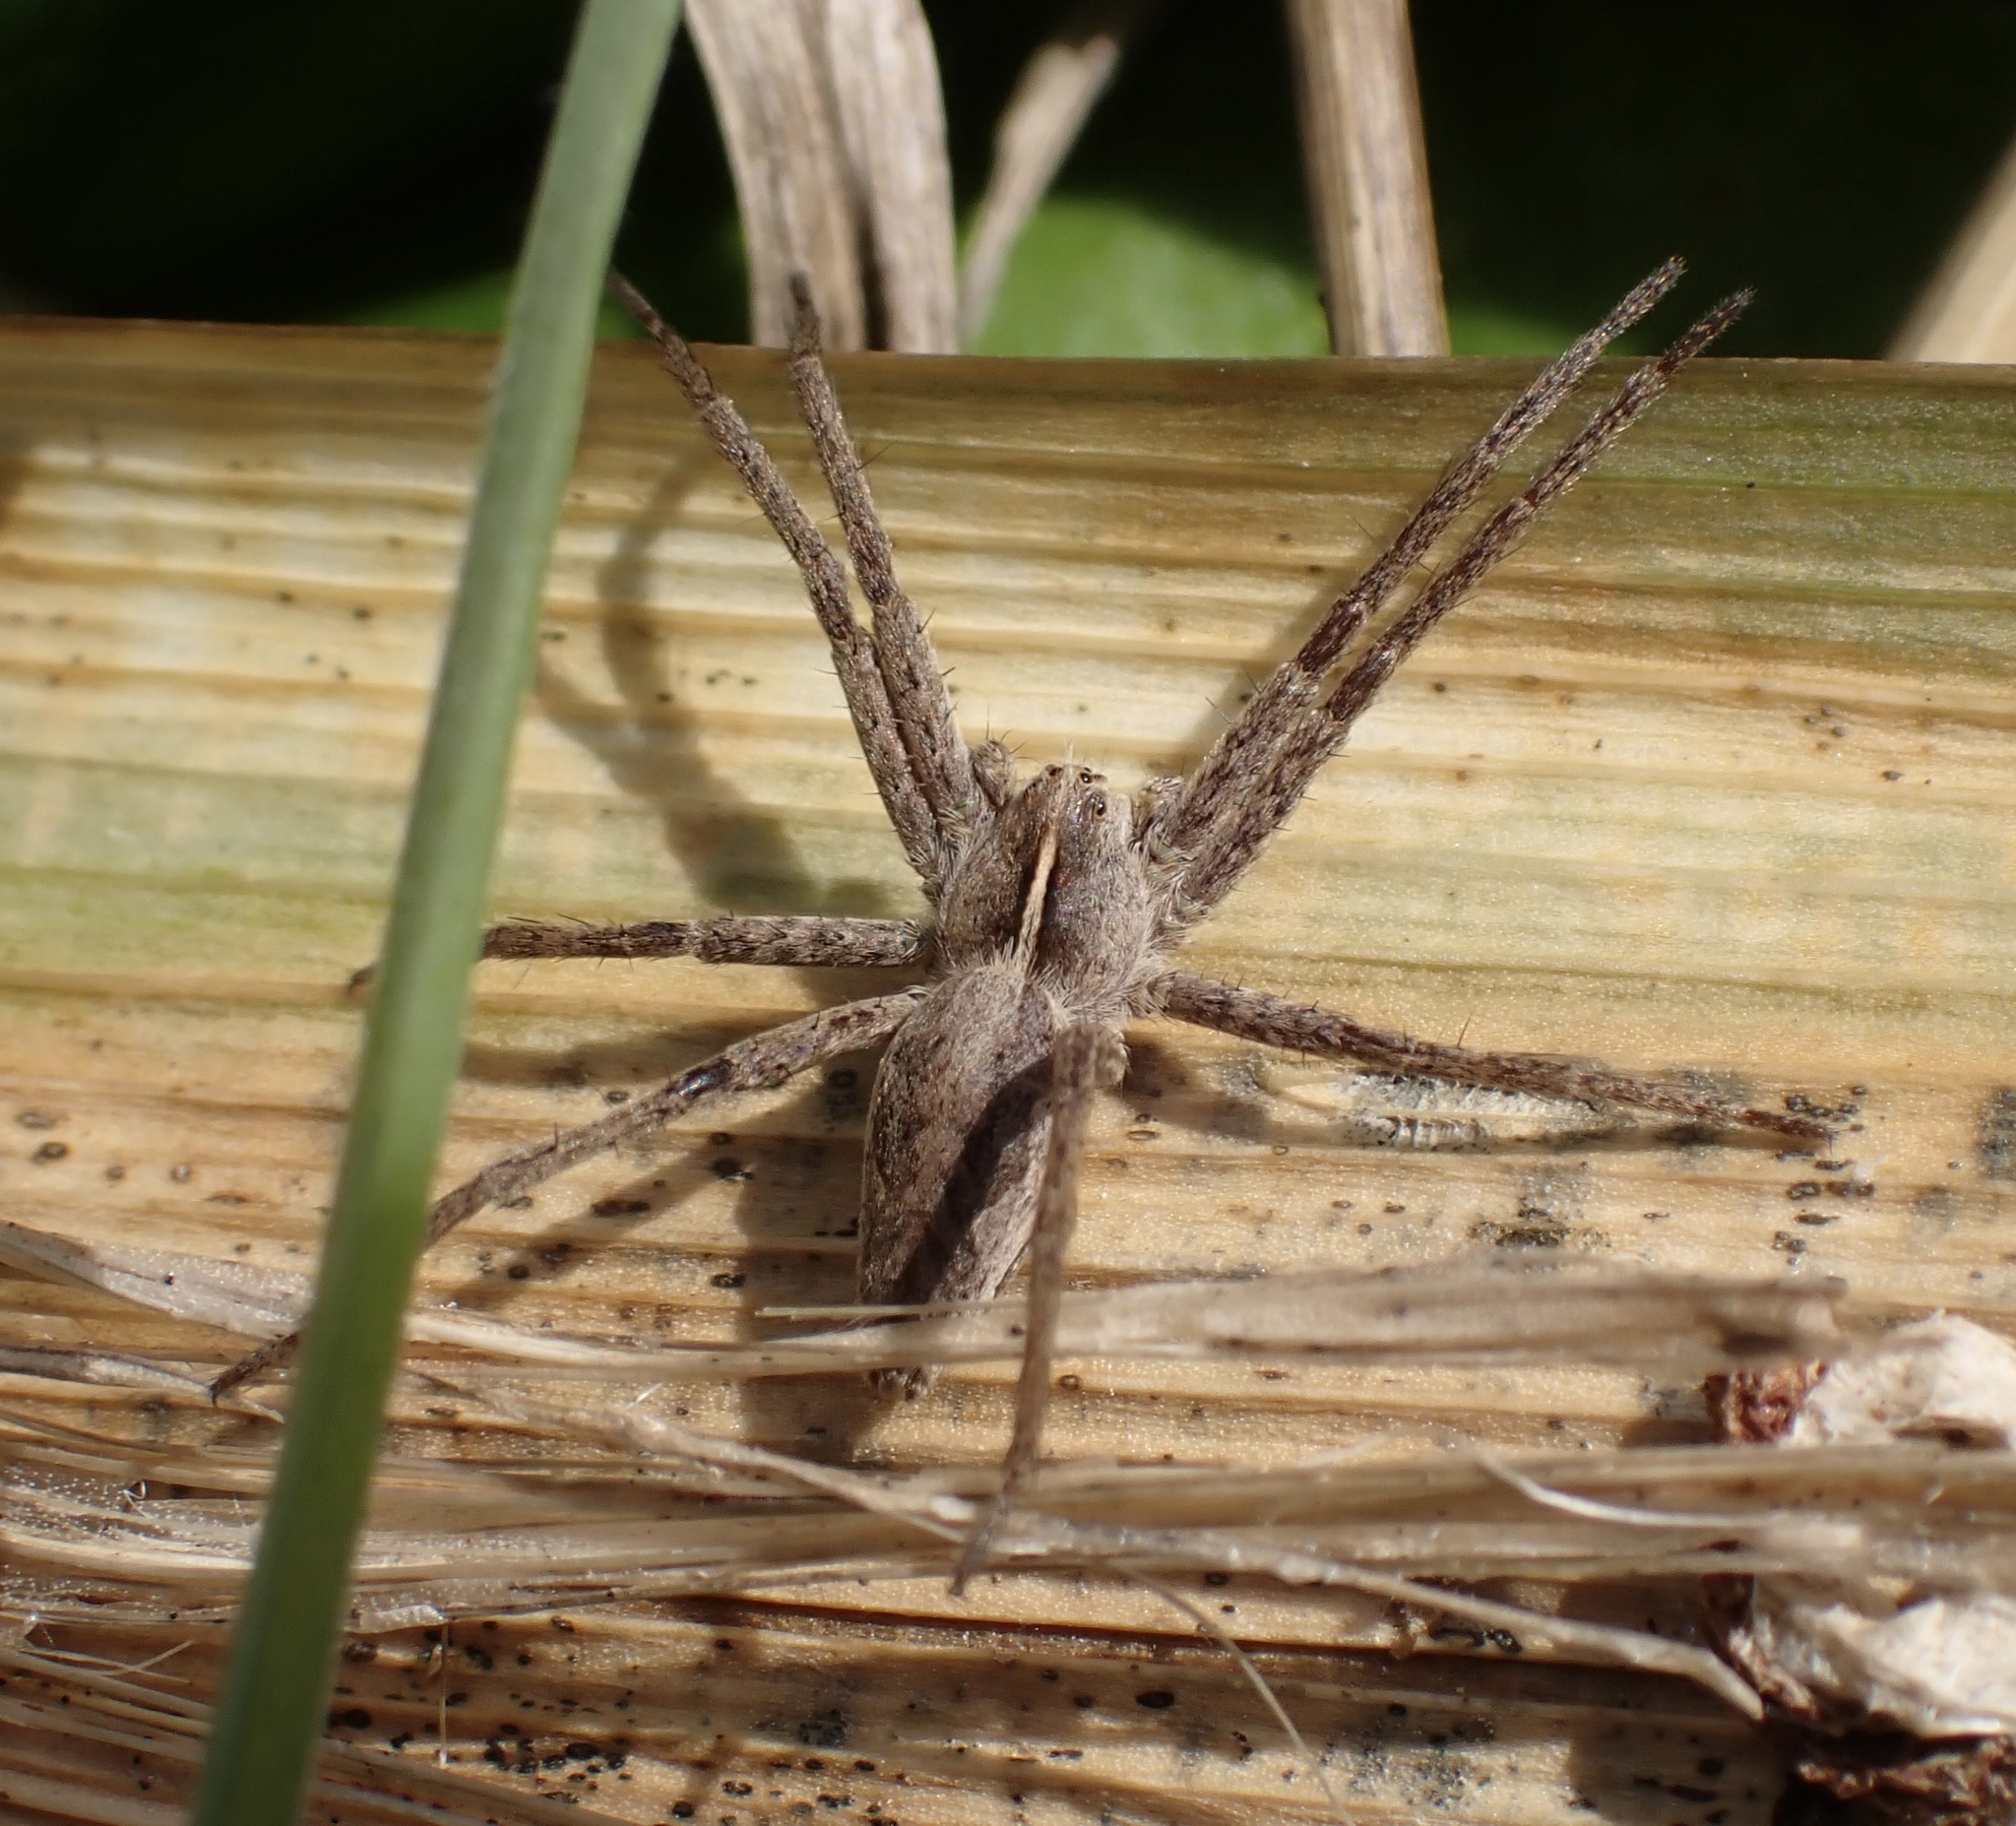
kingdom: Animalia
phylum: Arthropoda
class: Arachnida
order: Araneae
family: Pisauridae
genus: Pisaura
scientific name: Pisaura mirabilis
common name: Tent spider
